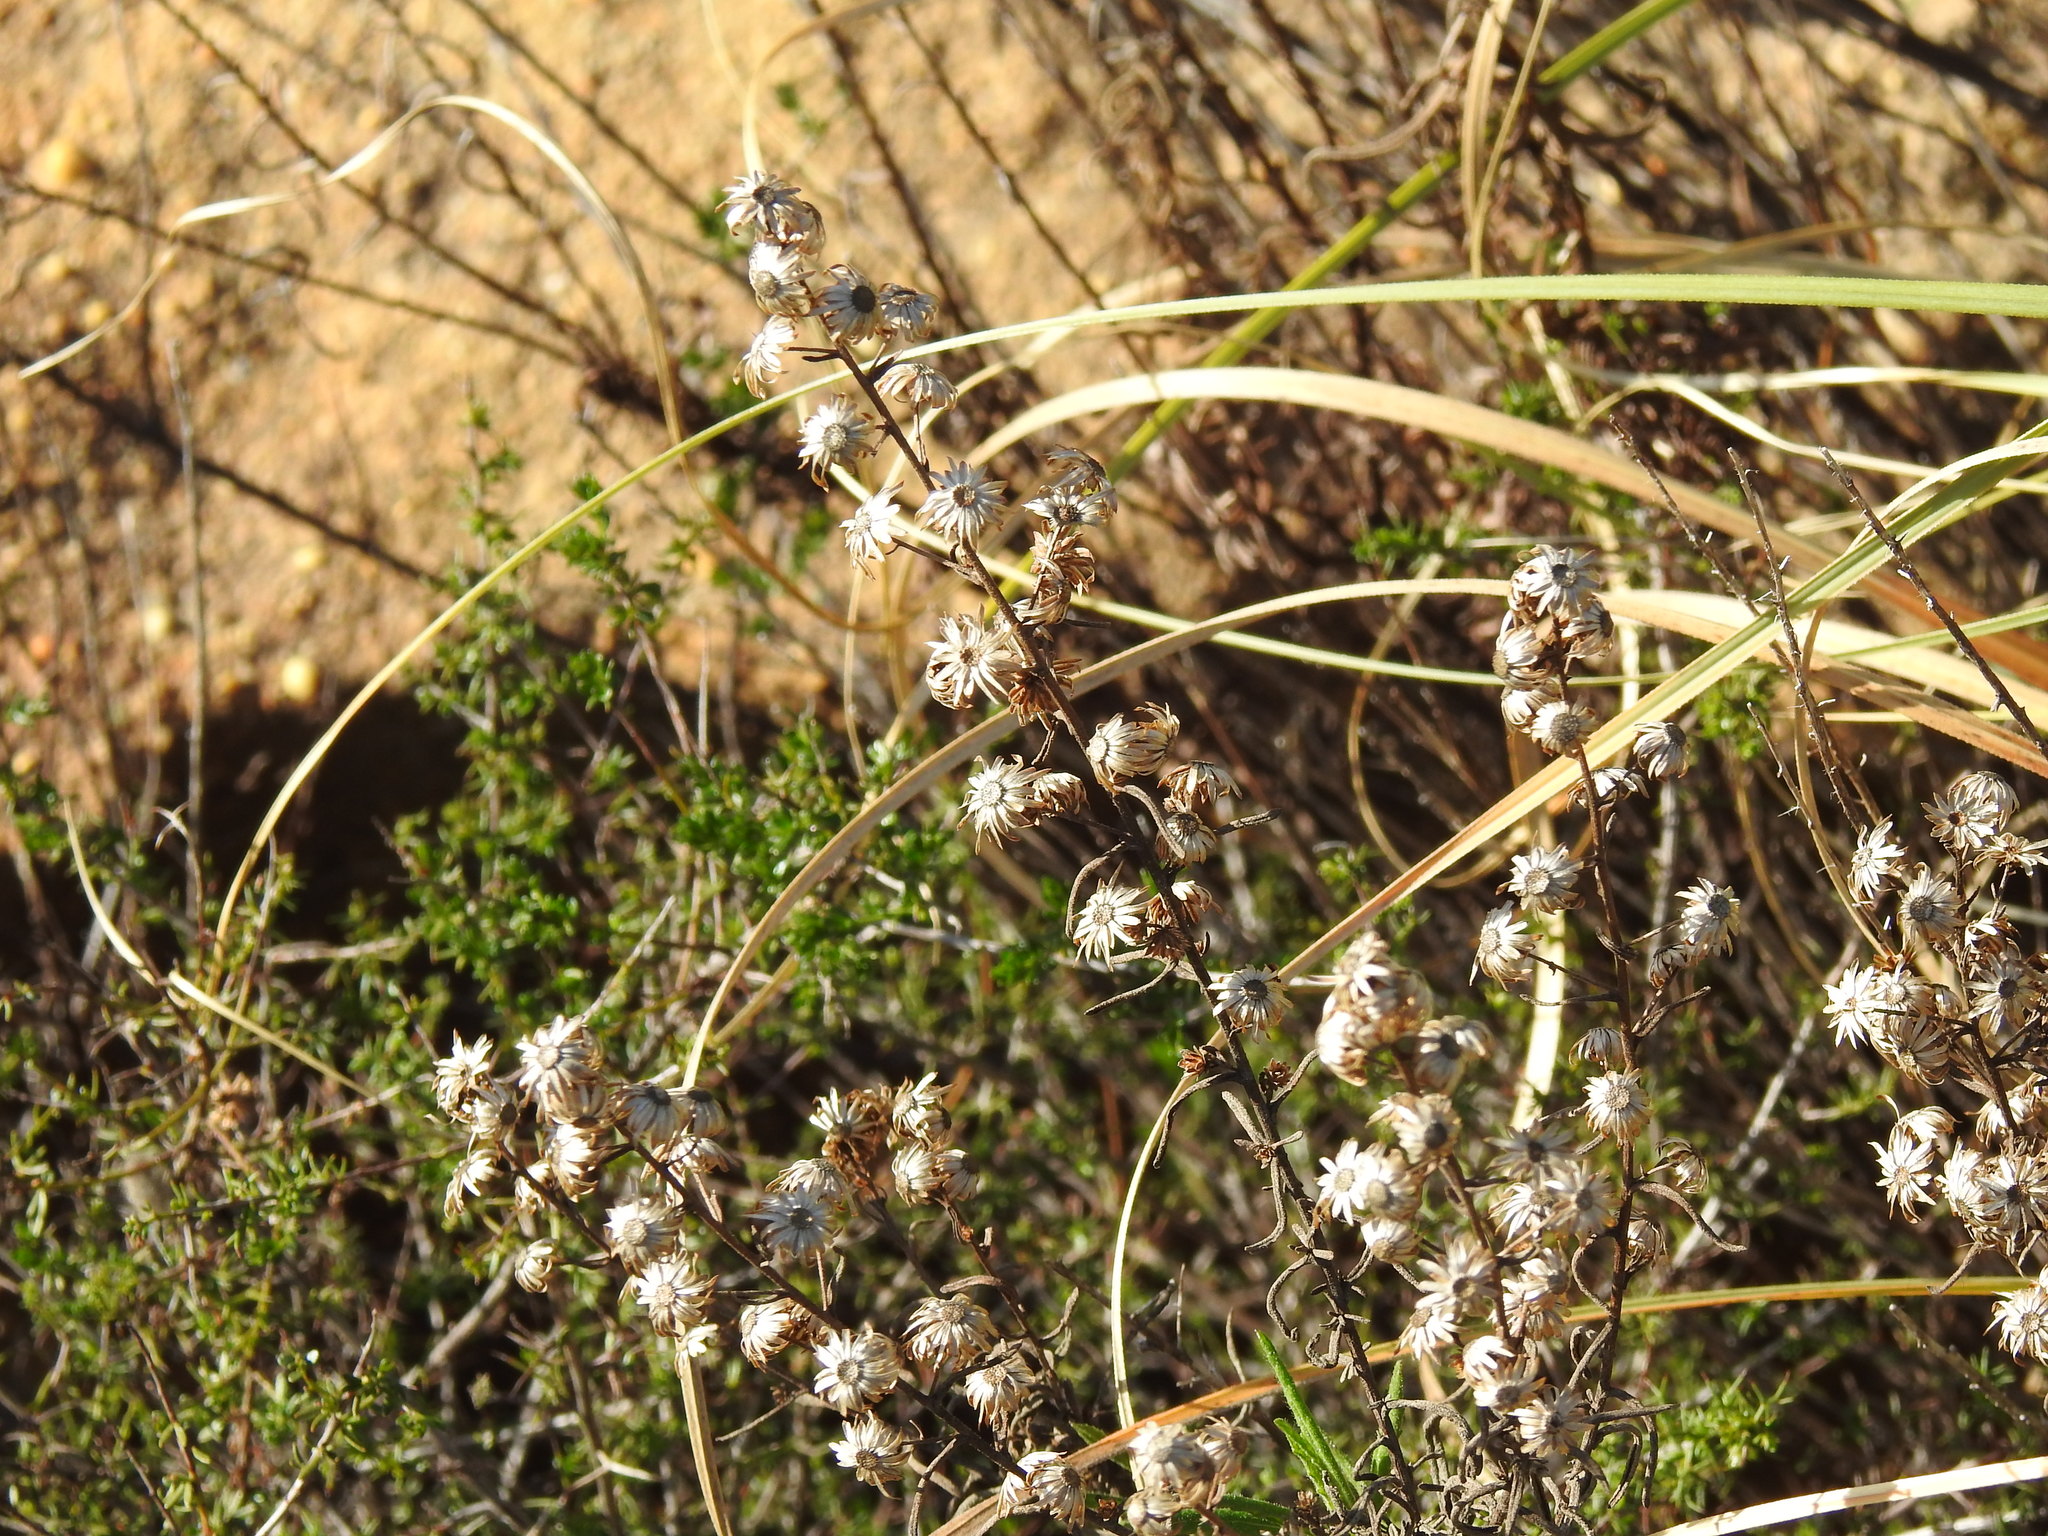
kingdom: Plantae
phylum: Tracheophyta
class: Magnoliopsida
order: Asterales
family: Asteraceae
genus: Dittrichia
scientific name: Dittrichia viscosa
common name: Woody fleabane
